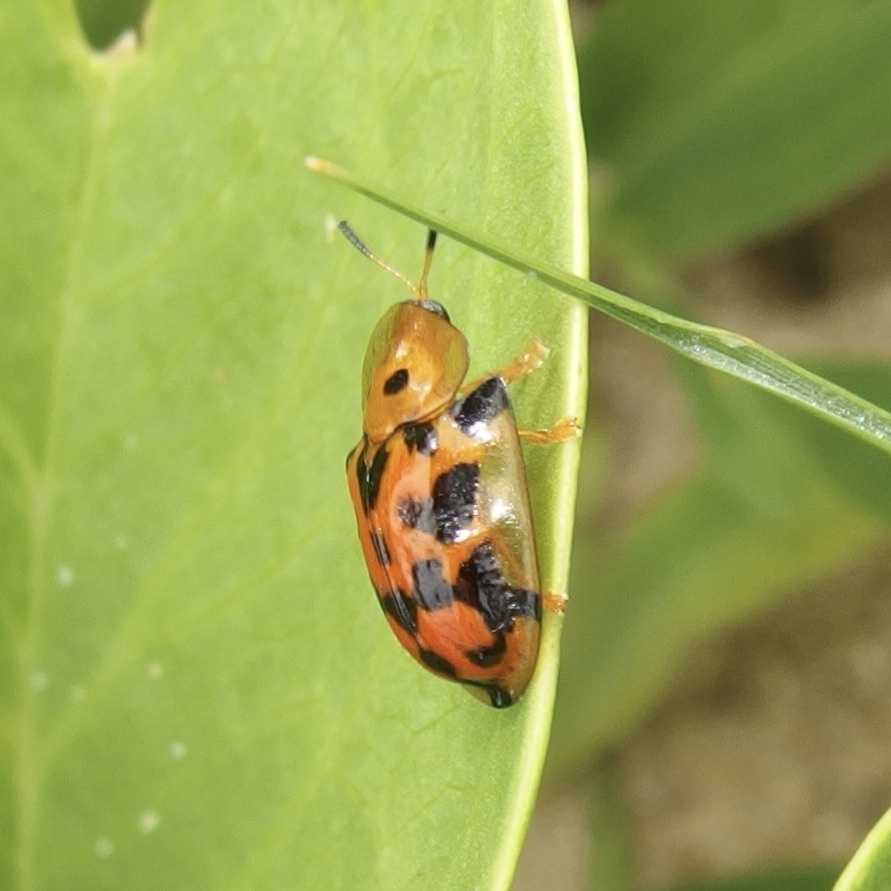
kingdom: Animalia
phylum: Arthropoda
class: Insecta
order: Coleoptera
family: Chrysomelidae
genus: Aspidimorpha
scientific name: Aspidimorpha deusta
